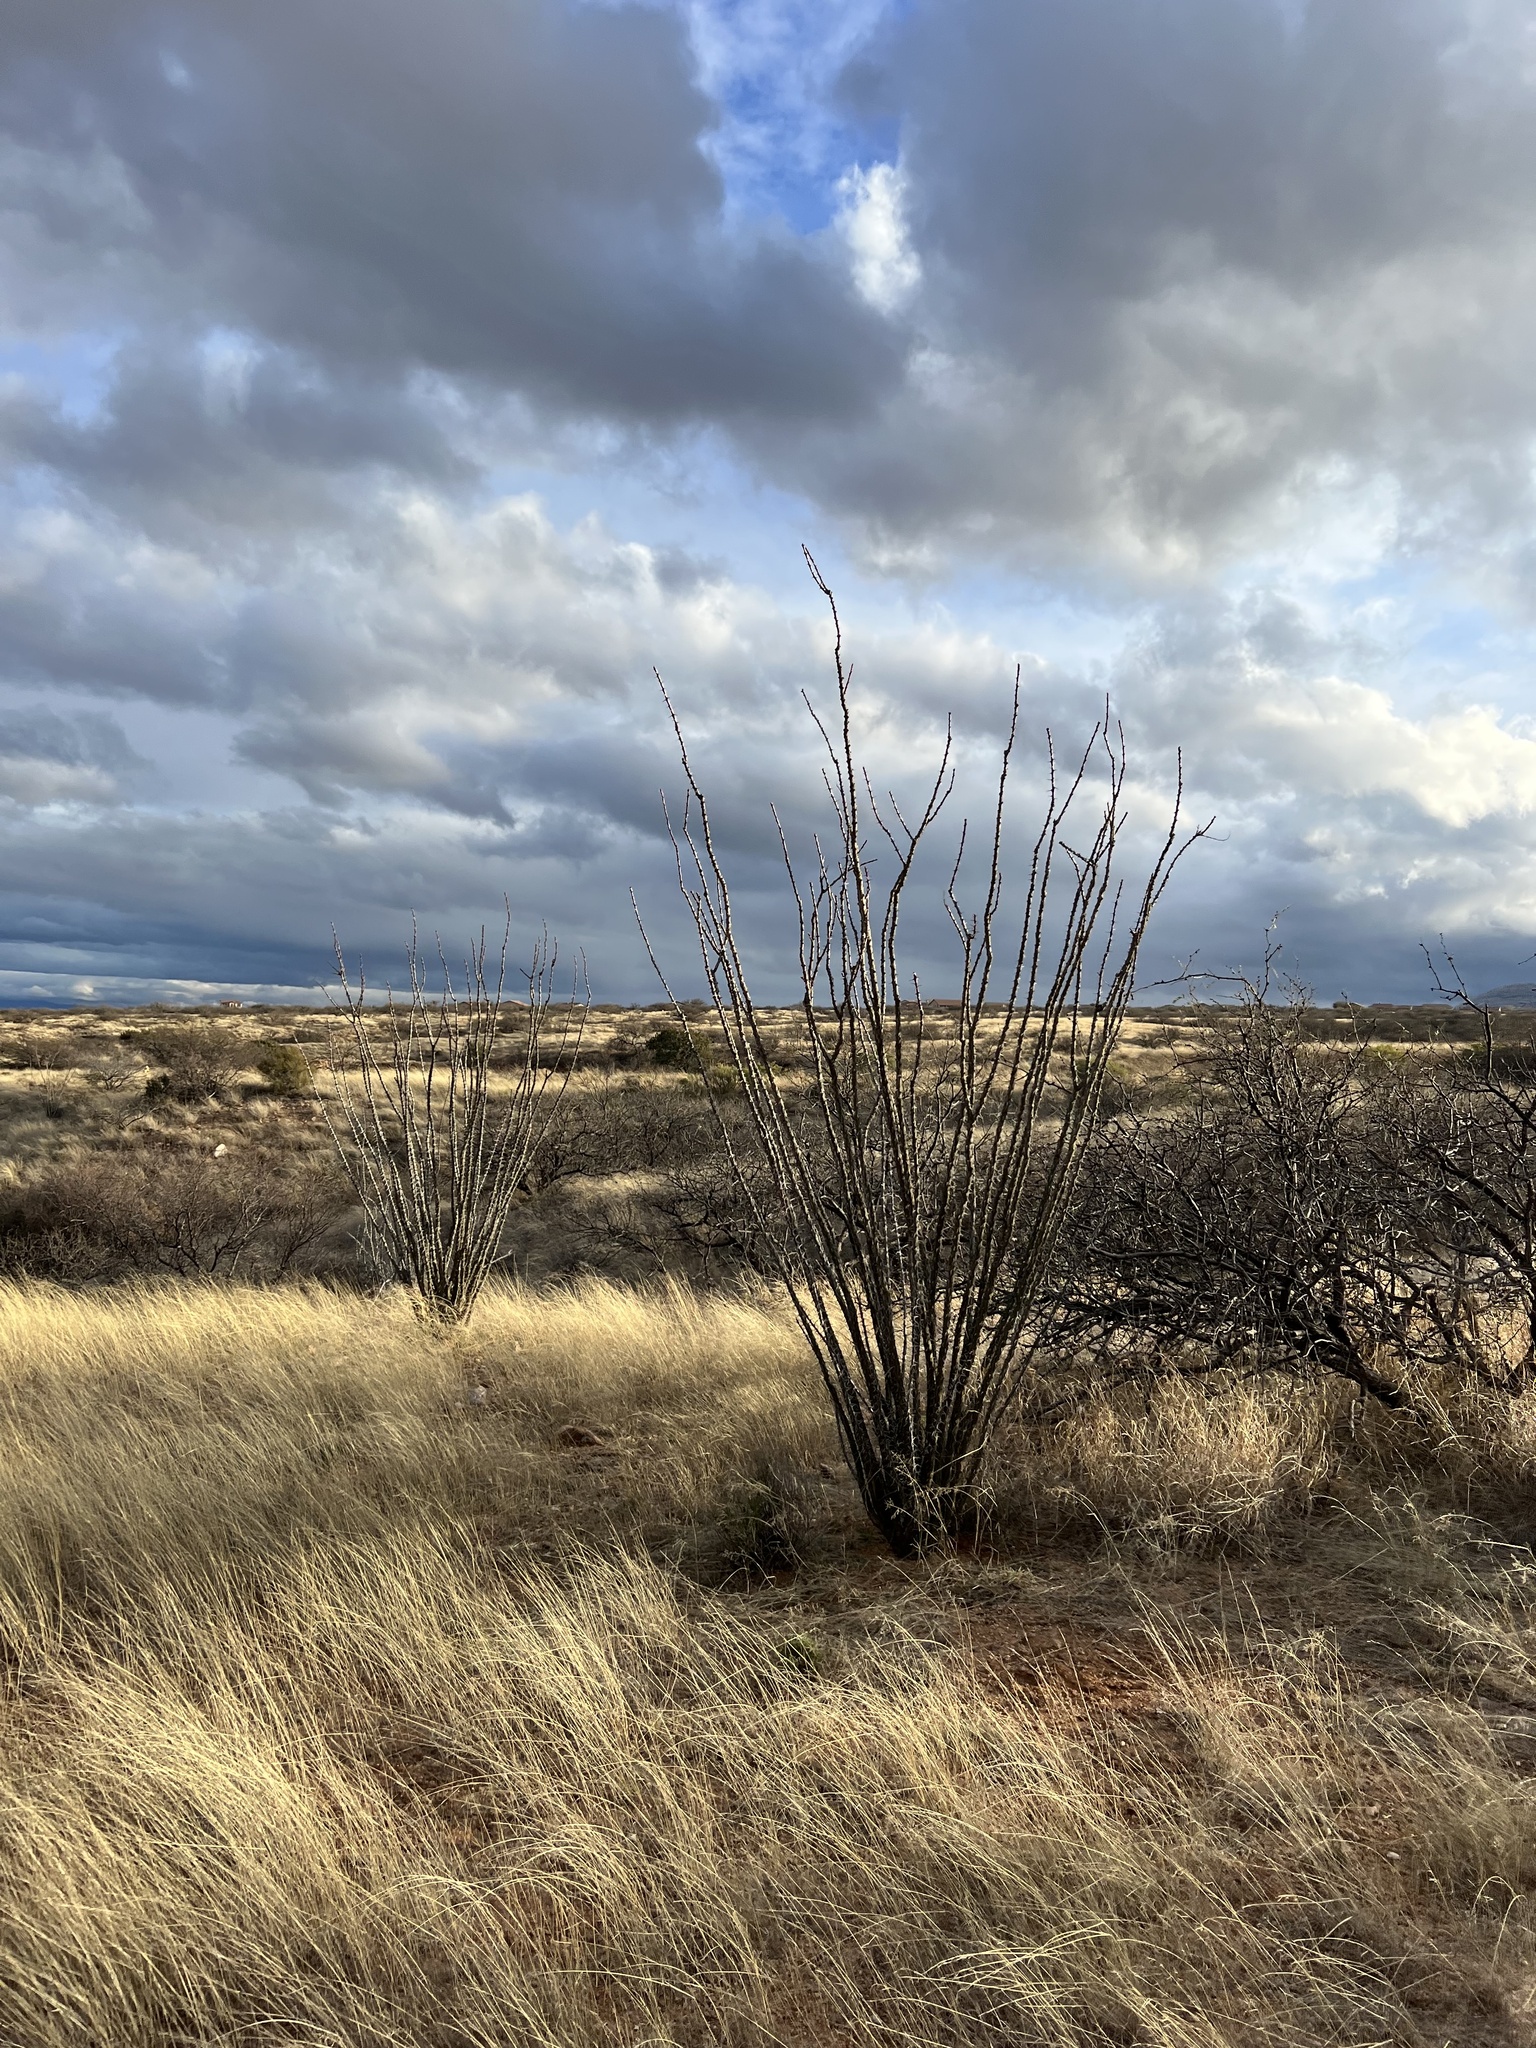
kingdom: Plantae
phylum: Tracheophyta
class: Magnoliopsida
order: Ericales
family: Fouquieriaceae
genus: Fouquieria
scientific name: Fouquieria splendens
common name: Vine-cactus
